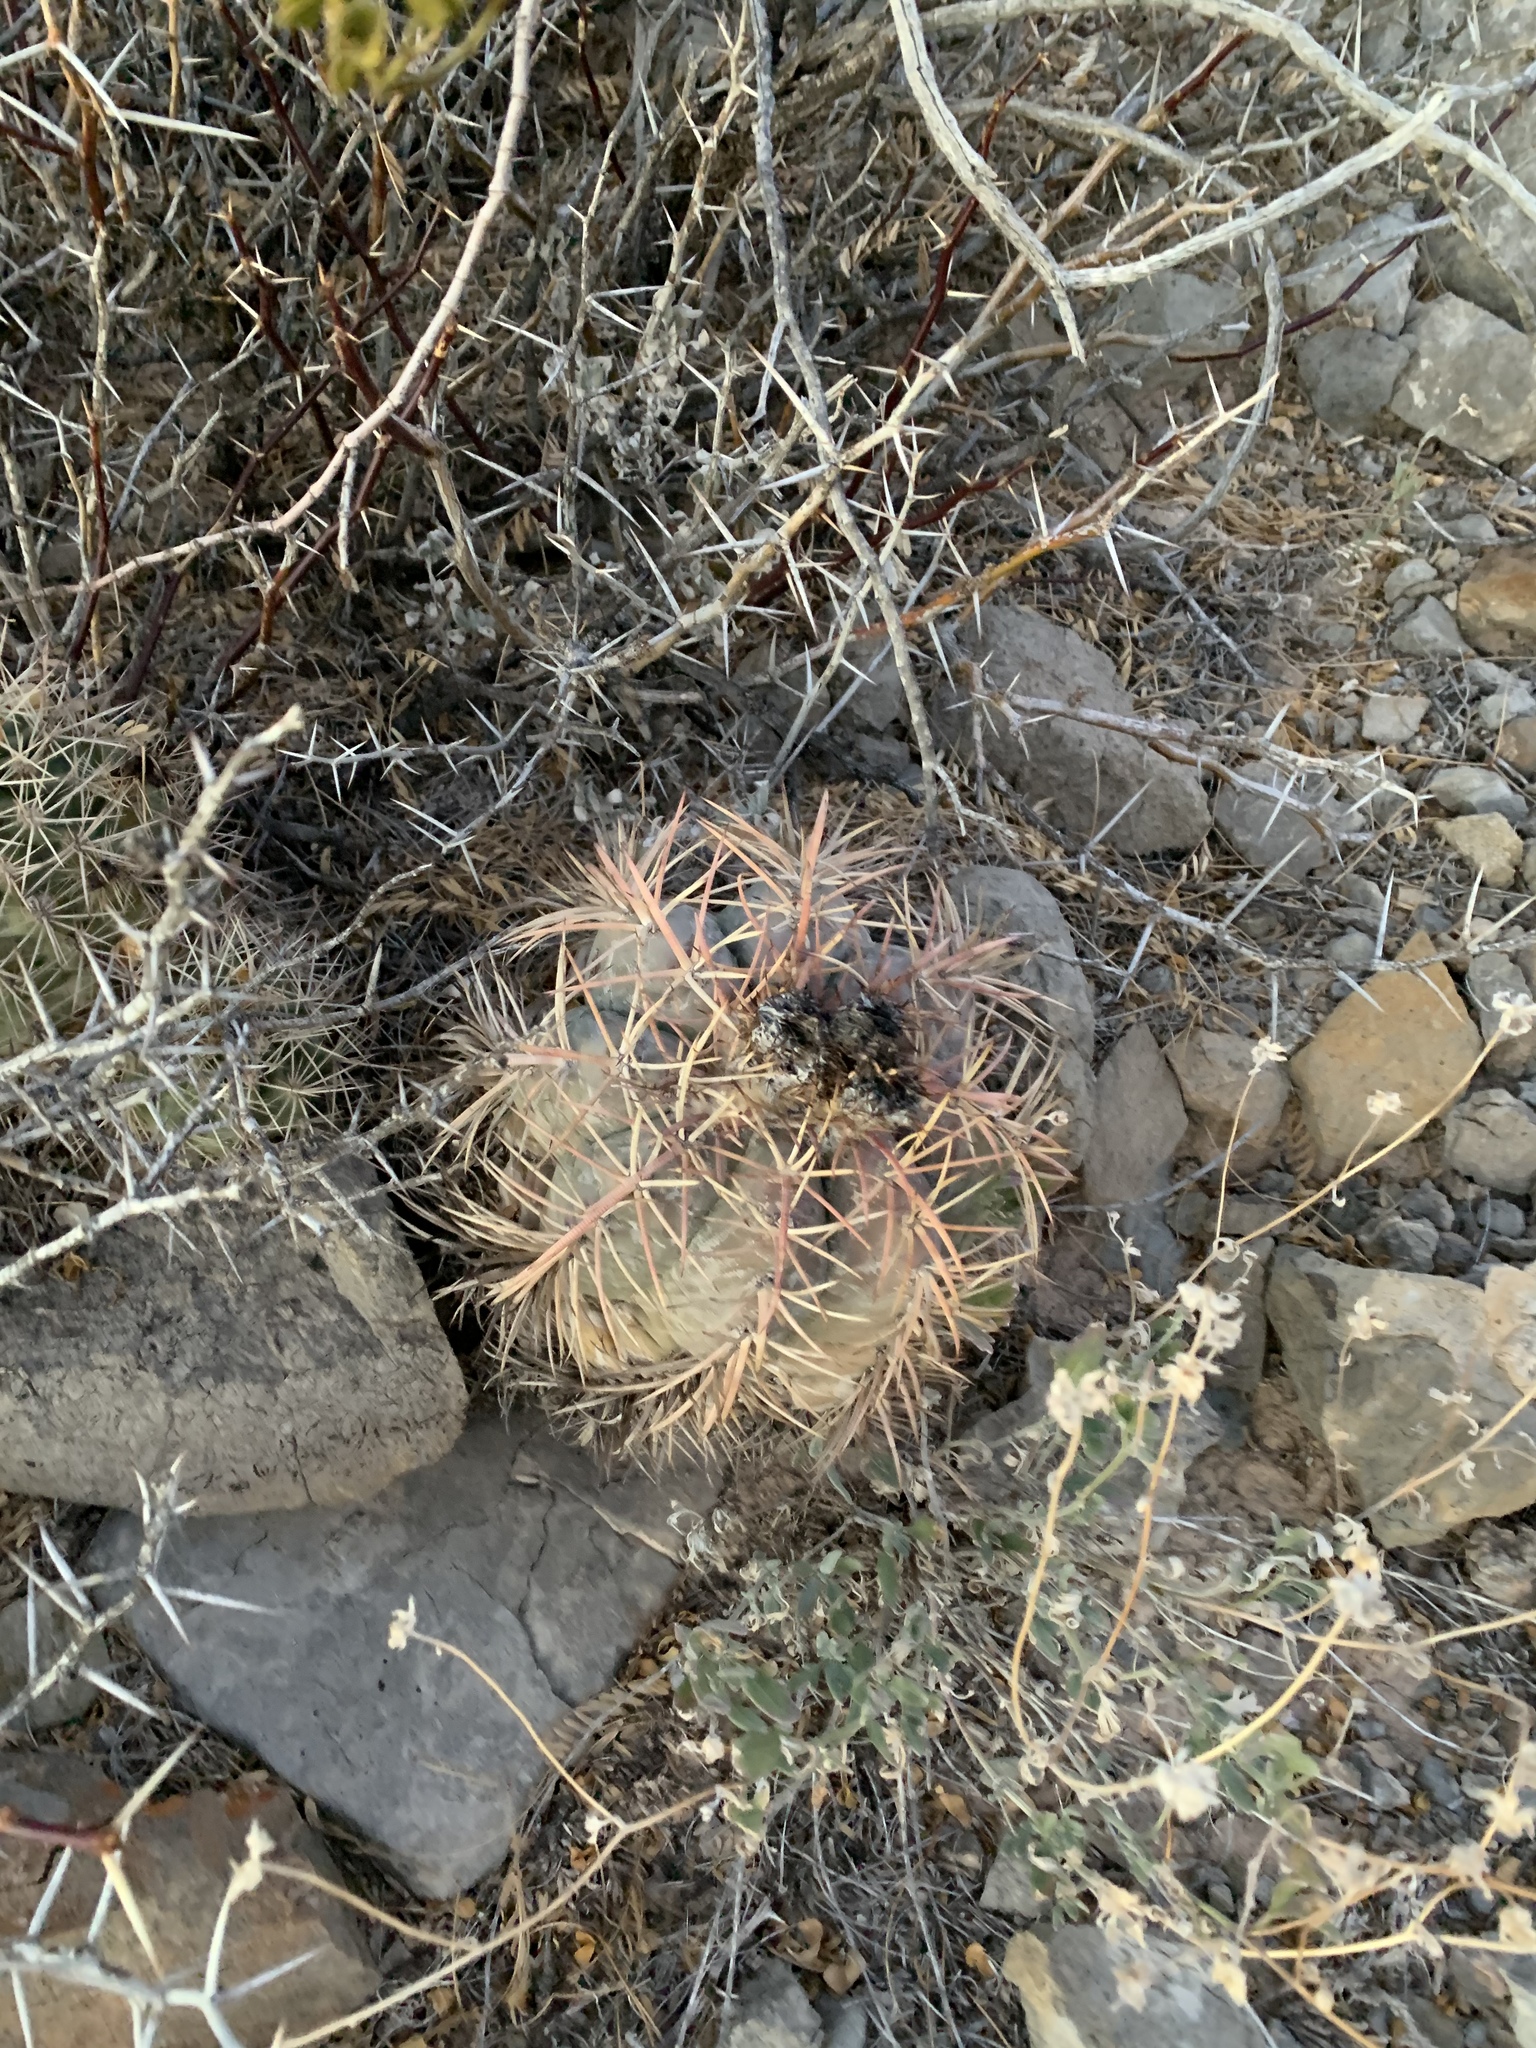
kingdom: Plantae
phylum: Tracheophyta
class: Magnoliopsida
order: Caryophyllales
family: Cactaceae
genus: Echinocactus
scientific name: Echinocactus horizonthalonius
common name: Devilshead
